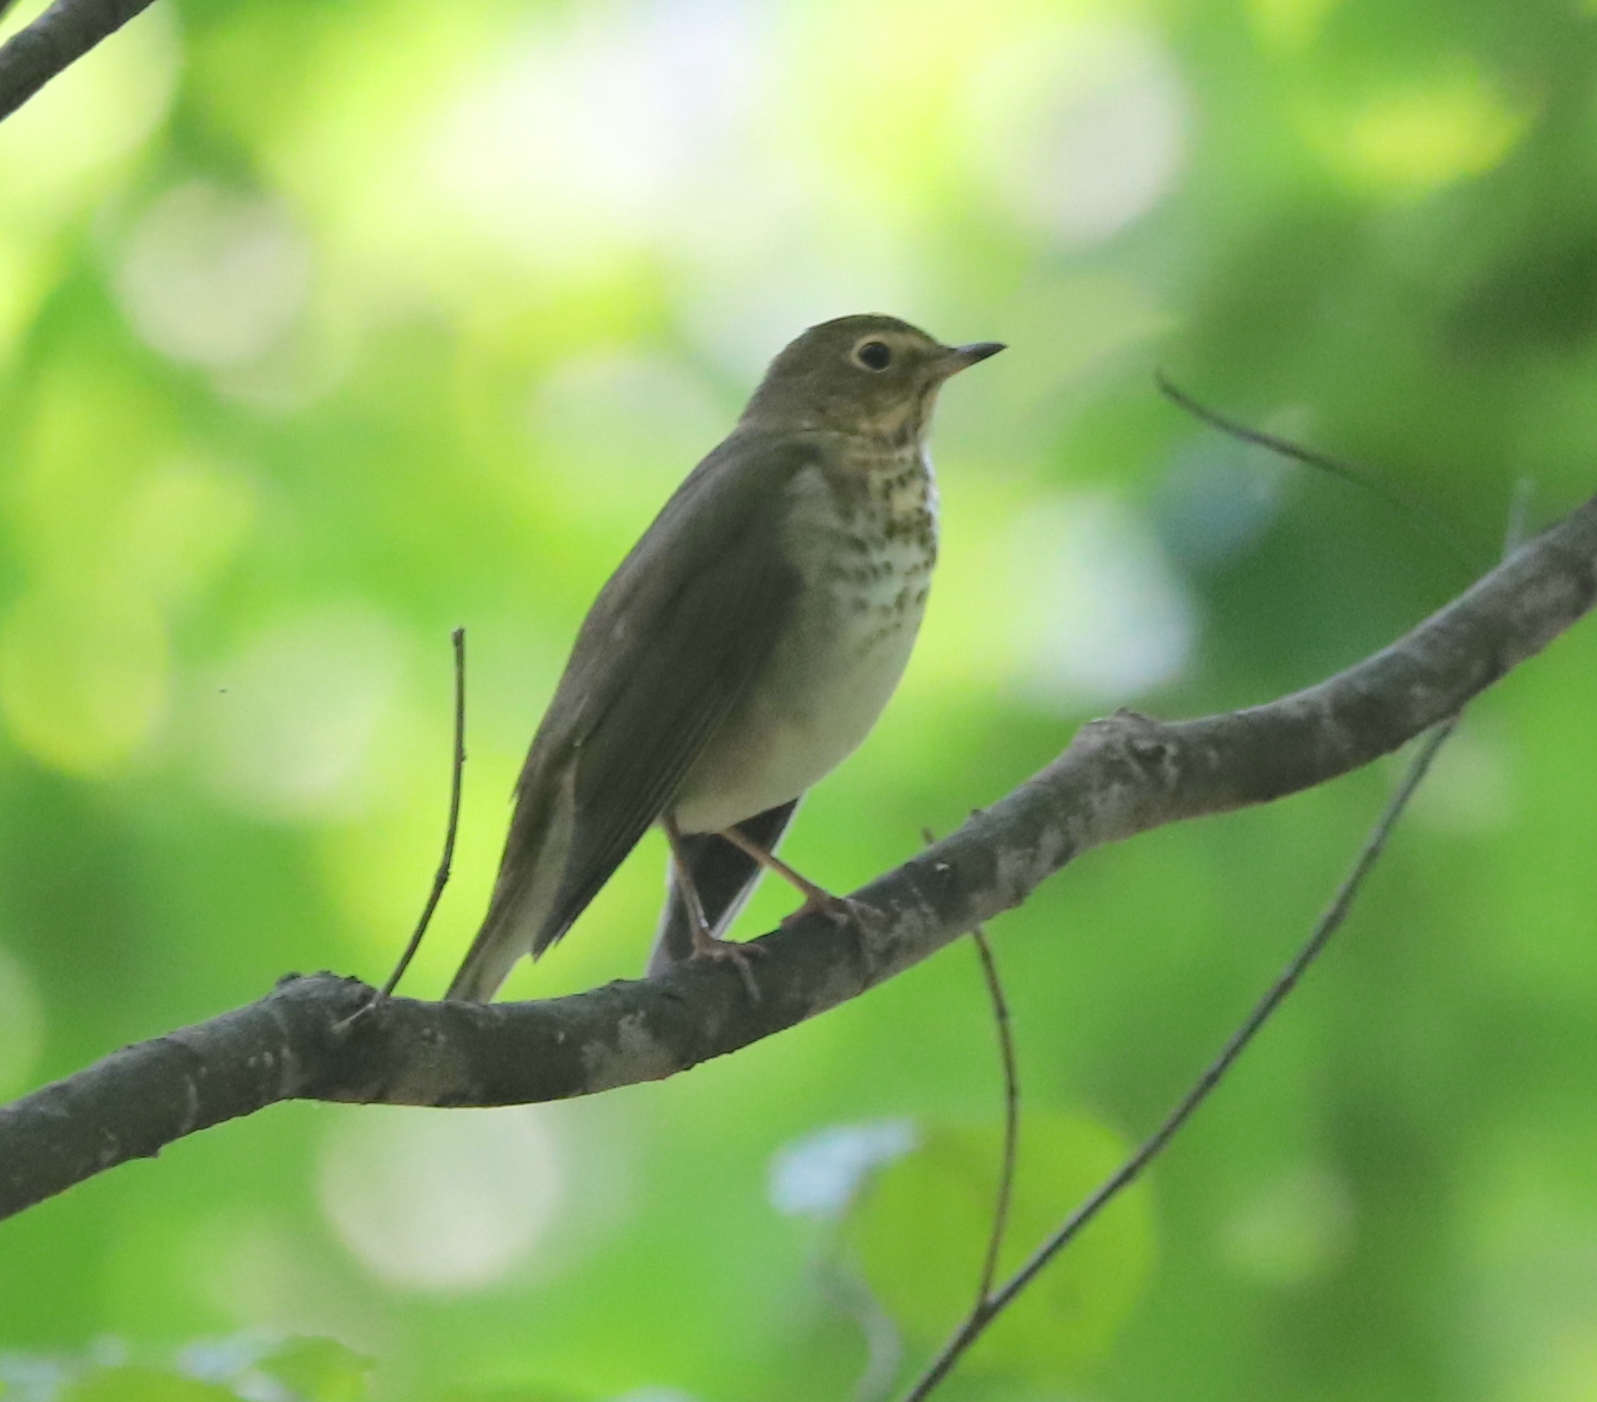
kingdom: Animalia
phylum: Chordata
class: Aves
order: Passeriformes
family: Turdidae
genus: Catharus
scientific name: Catharus ustulatus
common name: Swainson's thrush
